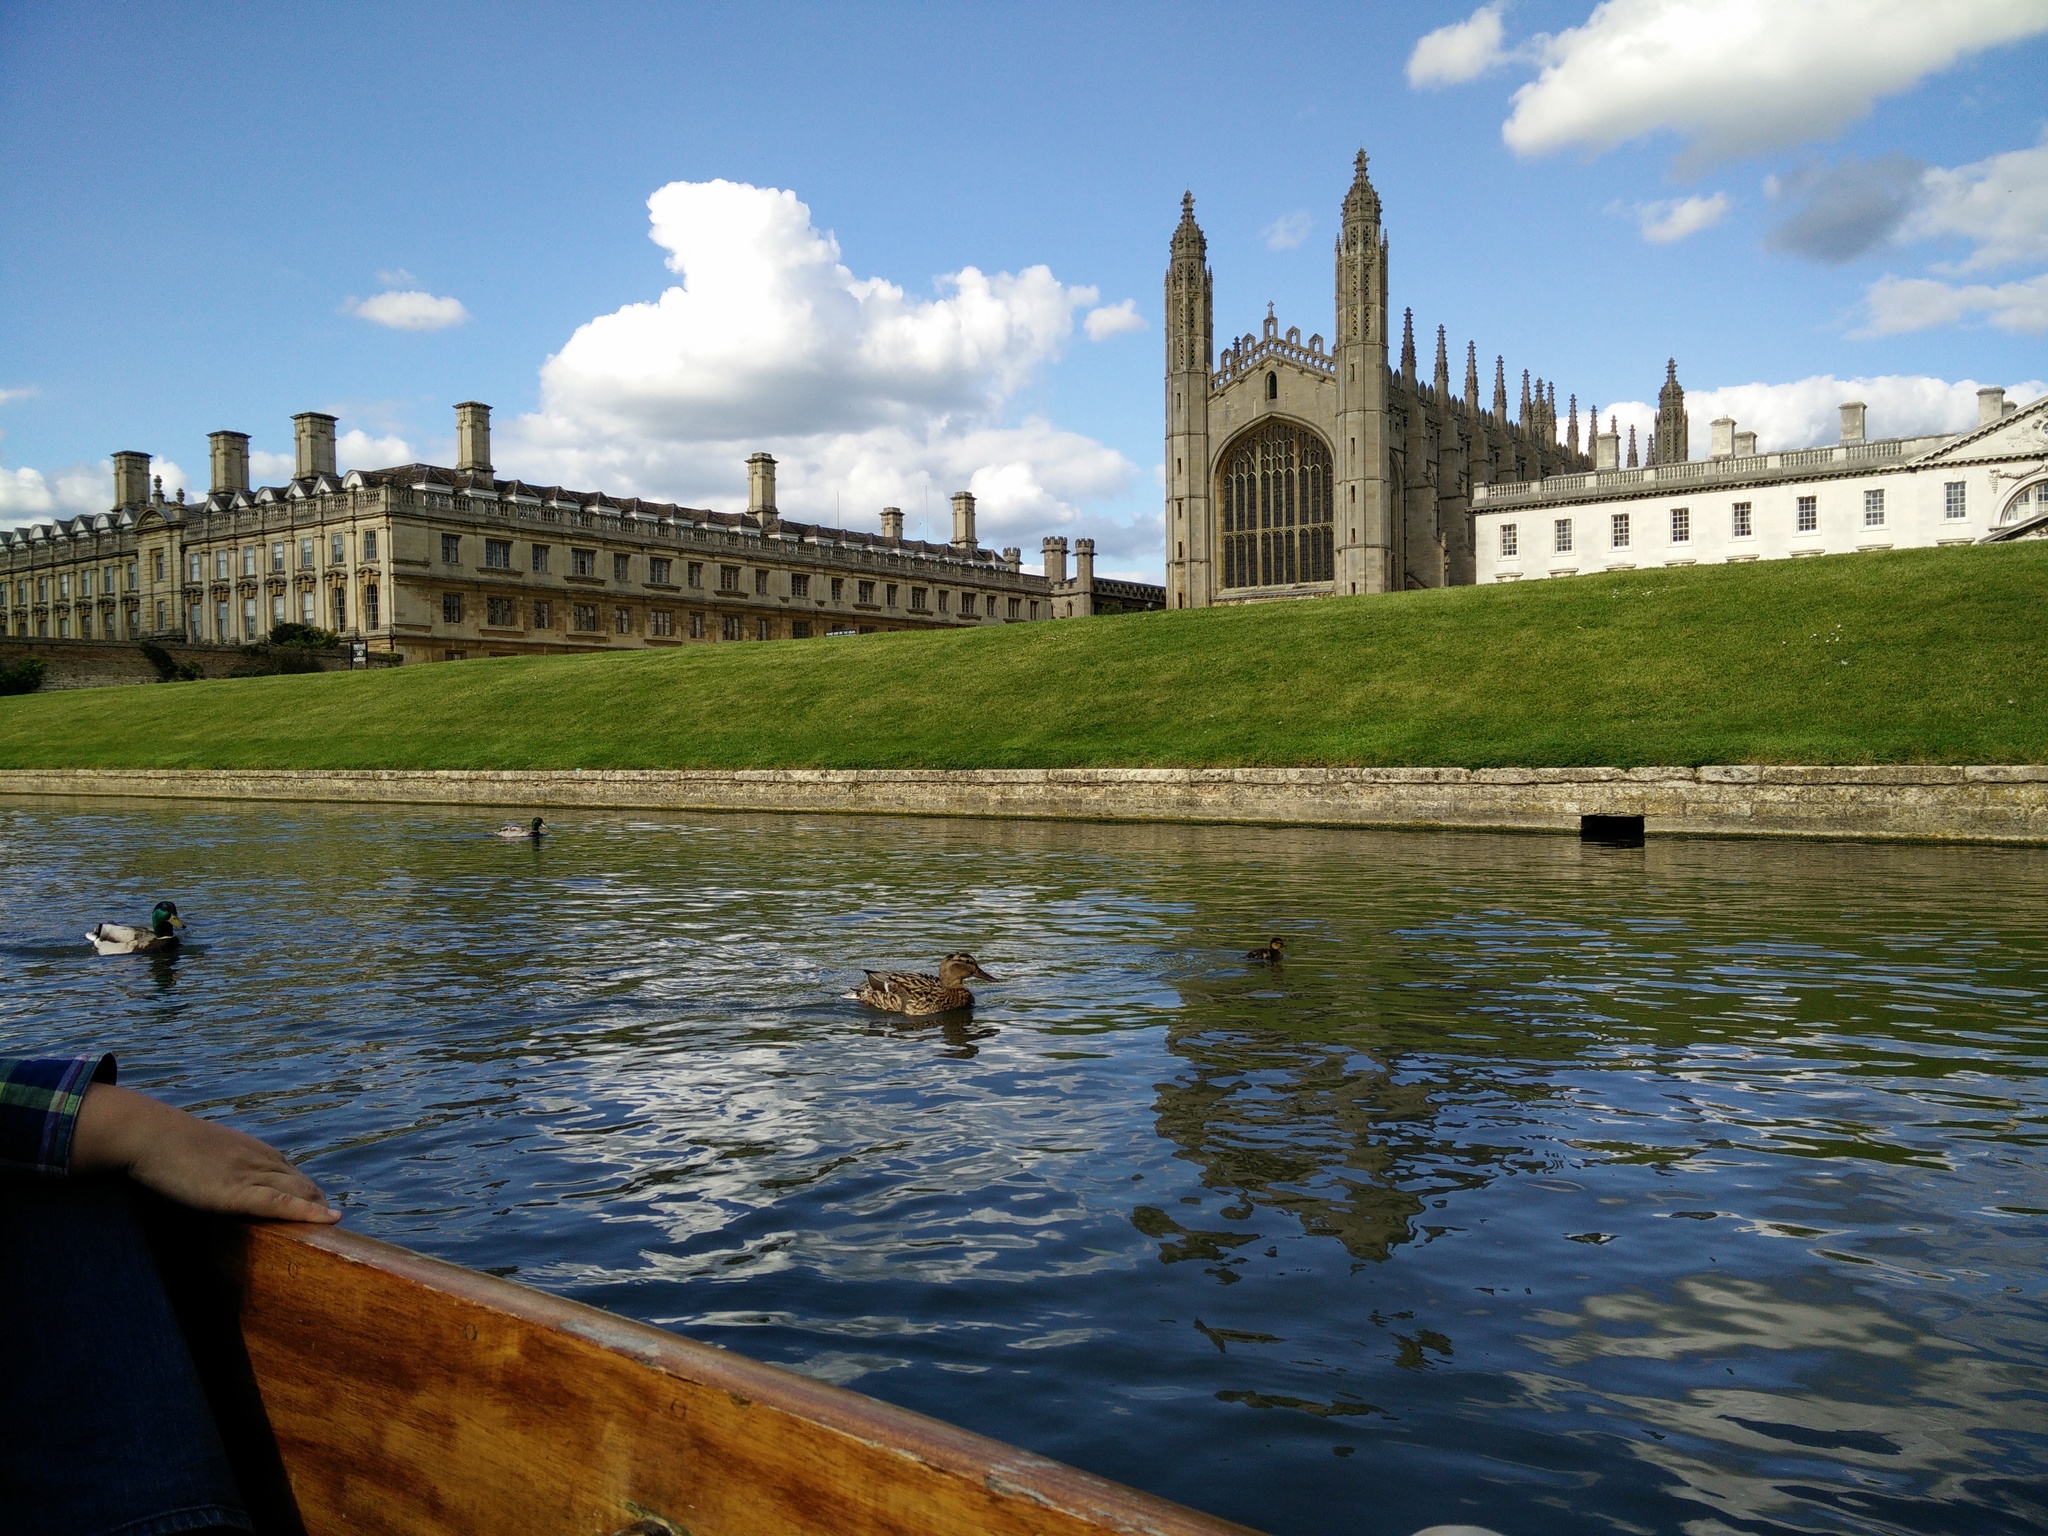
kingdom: Animalia
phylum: Chordata
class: Aves
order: Anseriformes
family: Anatidae
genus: Anas
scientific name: Anas platyrhynchos
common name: Mallard
